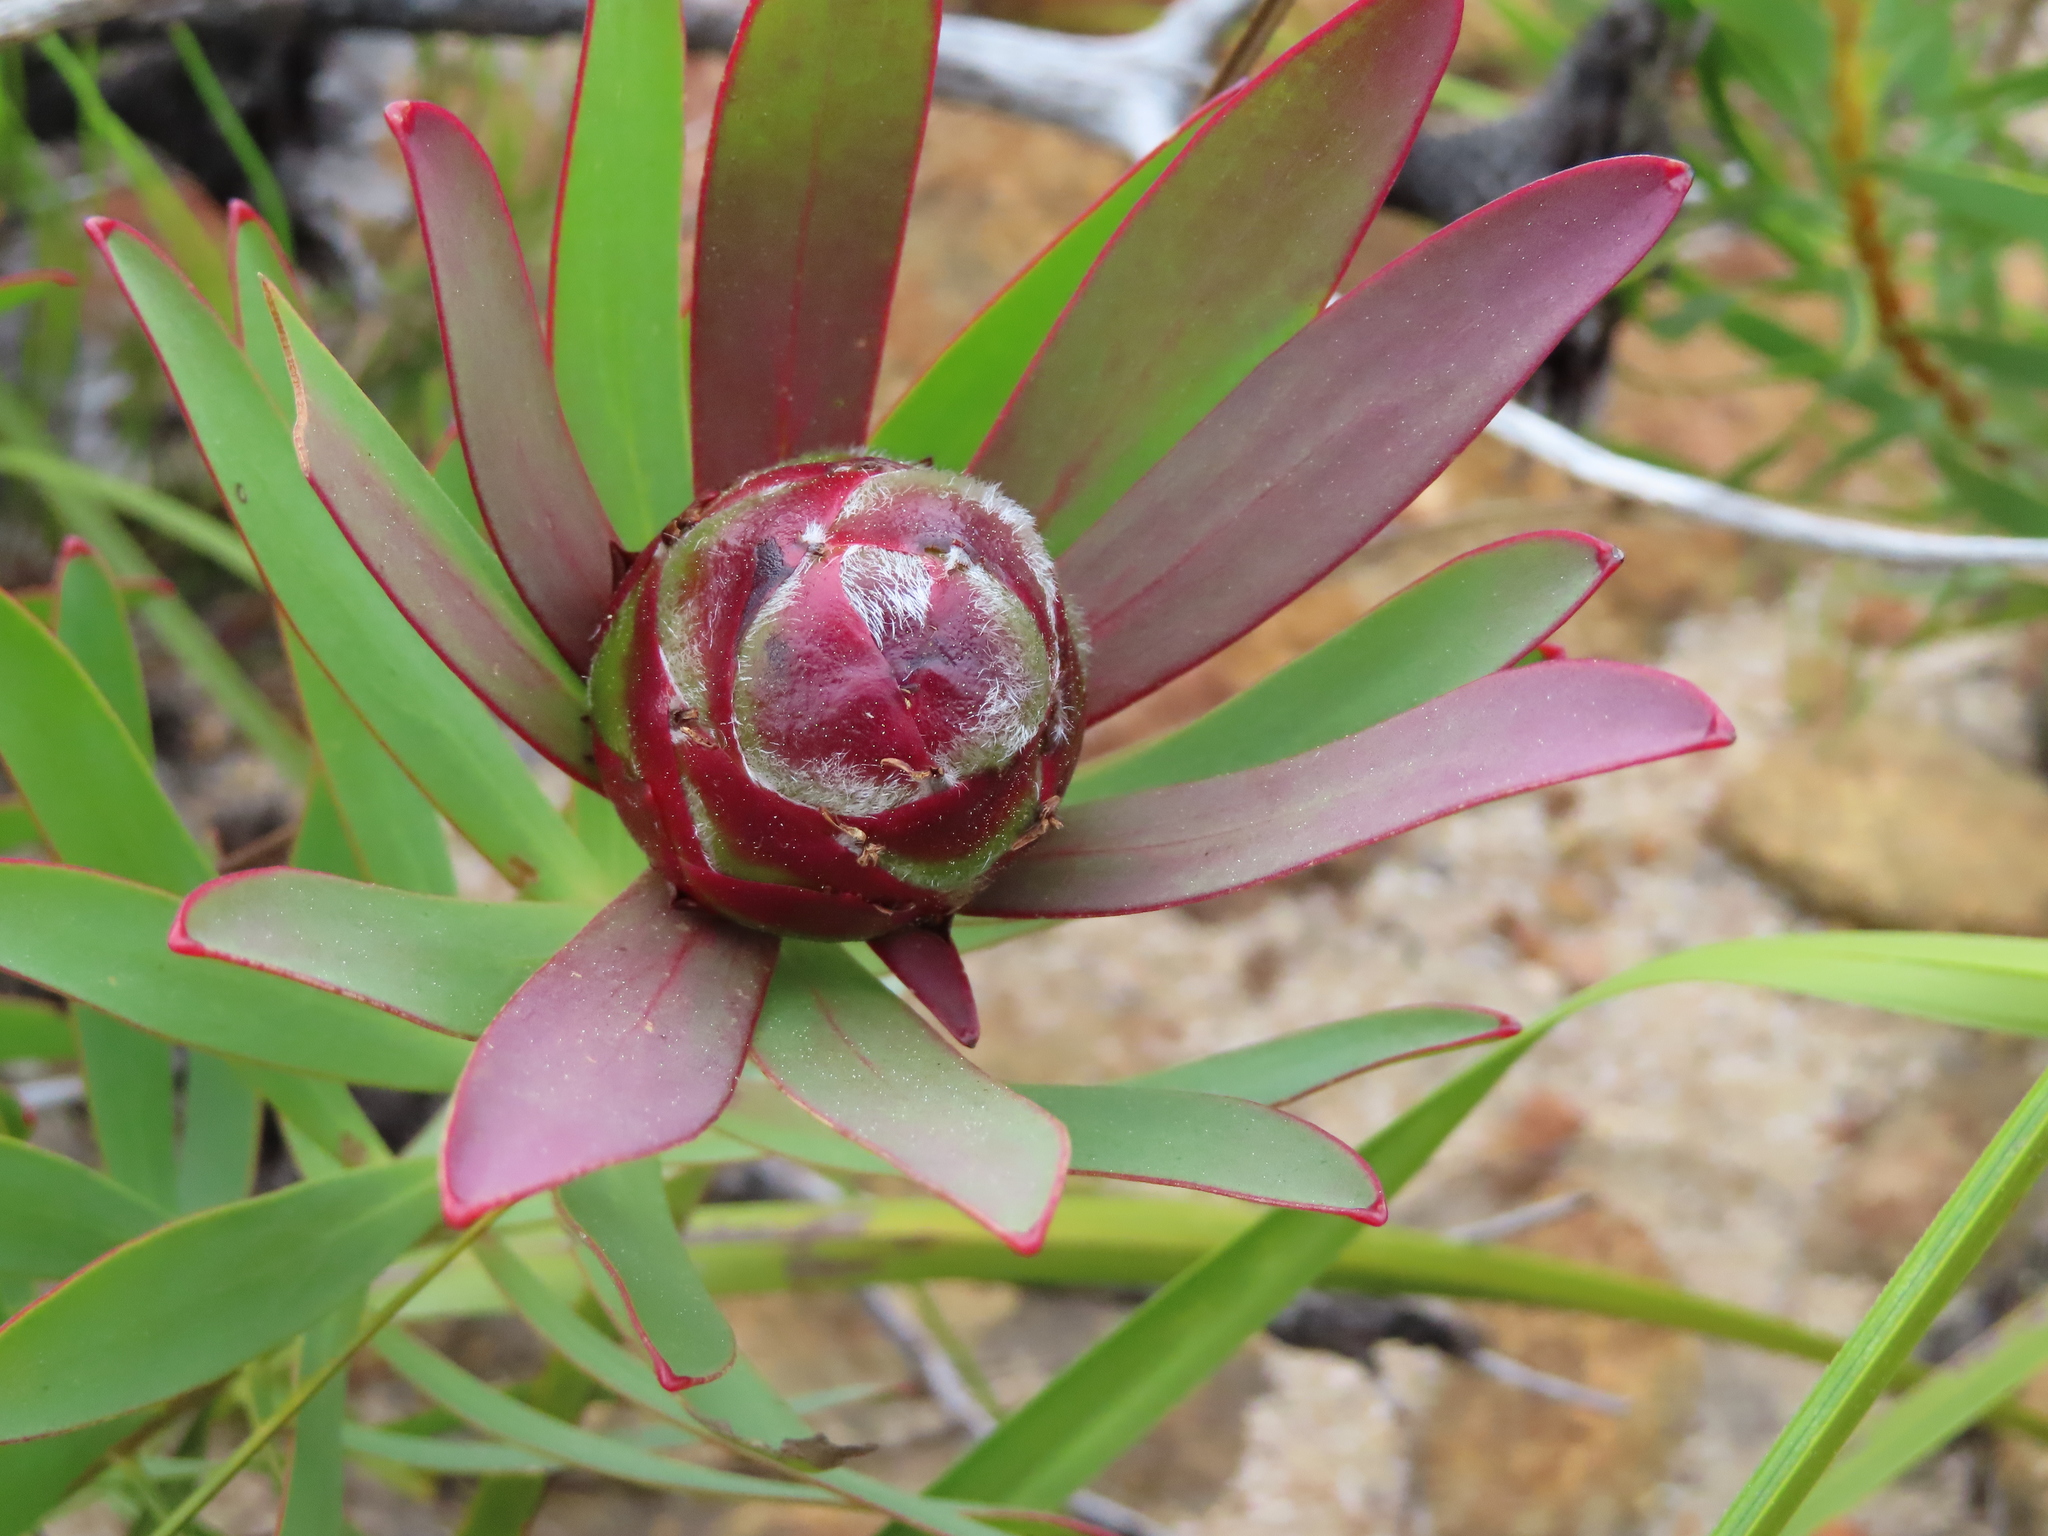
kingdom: Plantae
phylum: Tracheophyta
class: Magnoliopsida
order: Proteales
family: Proteaceae
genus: Leucadendron
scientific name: Leucadendron sessile
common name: Western sunbush
